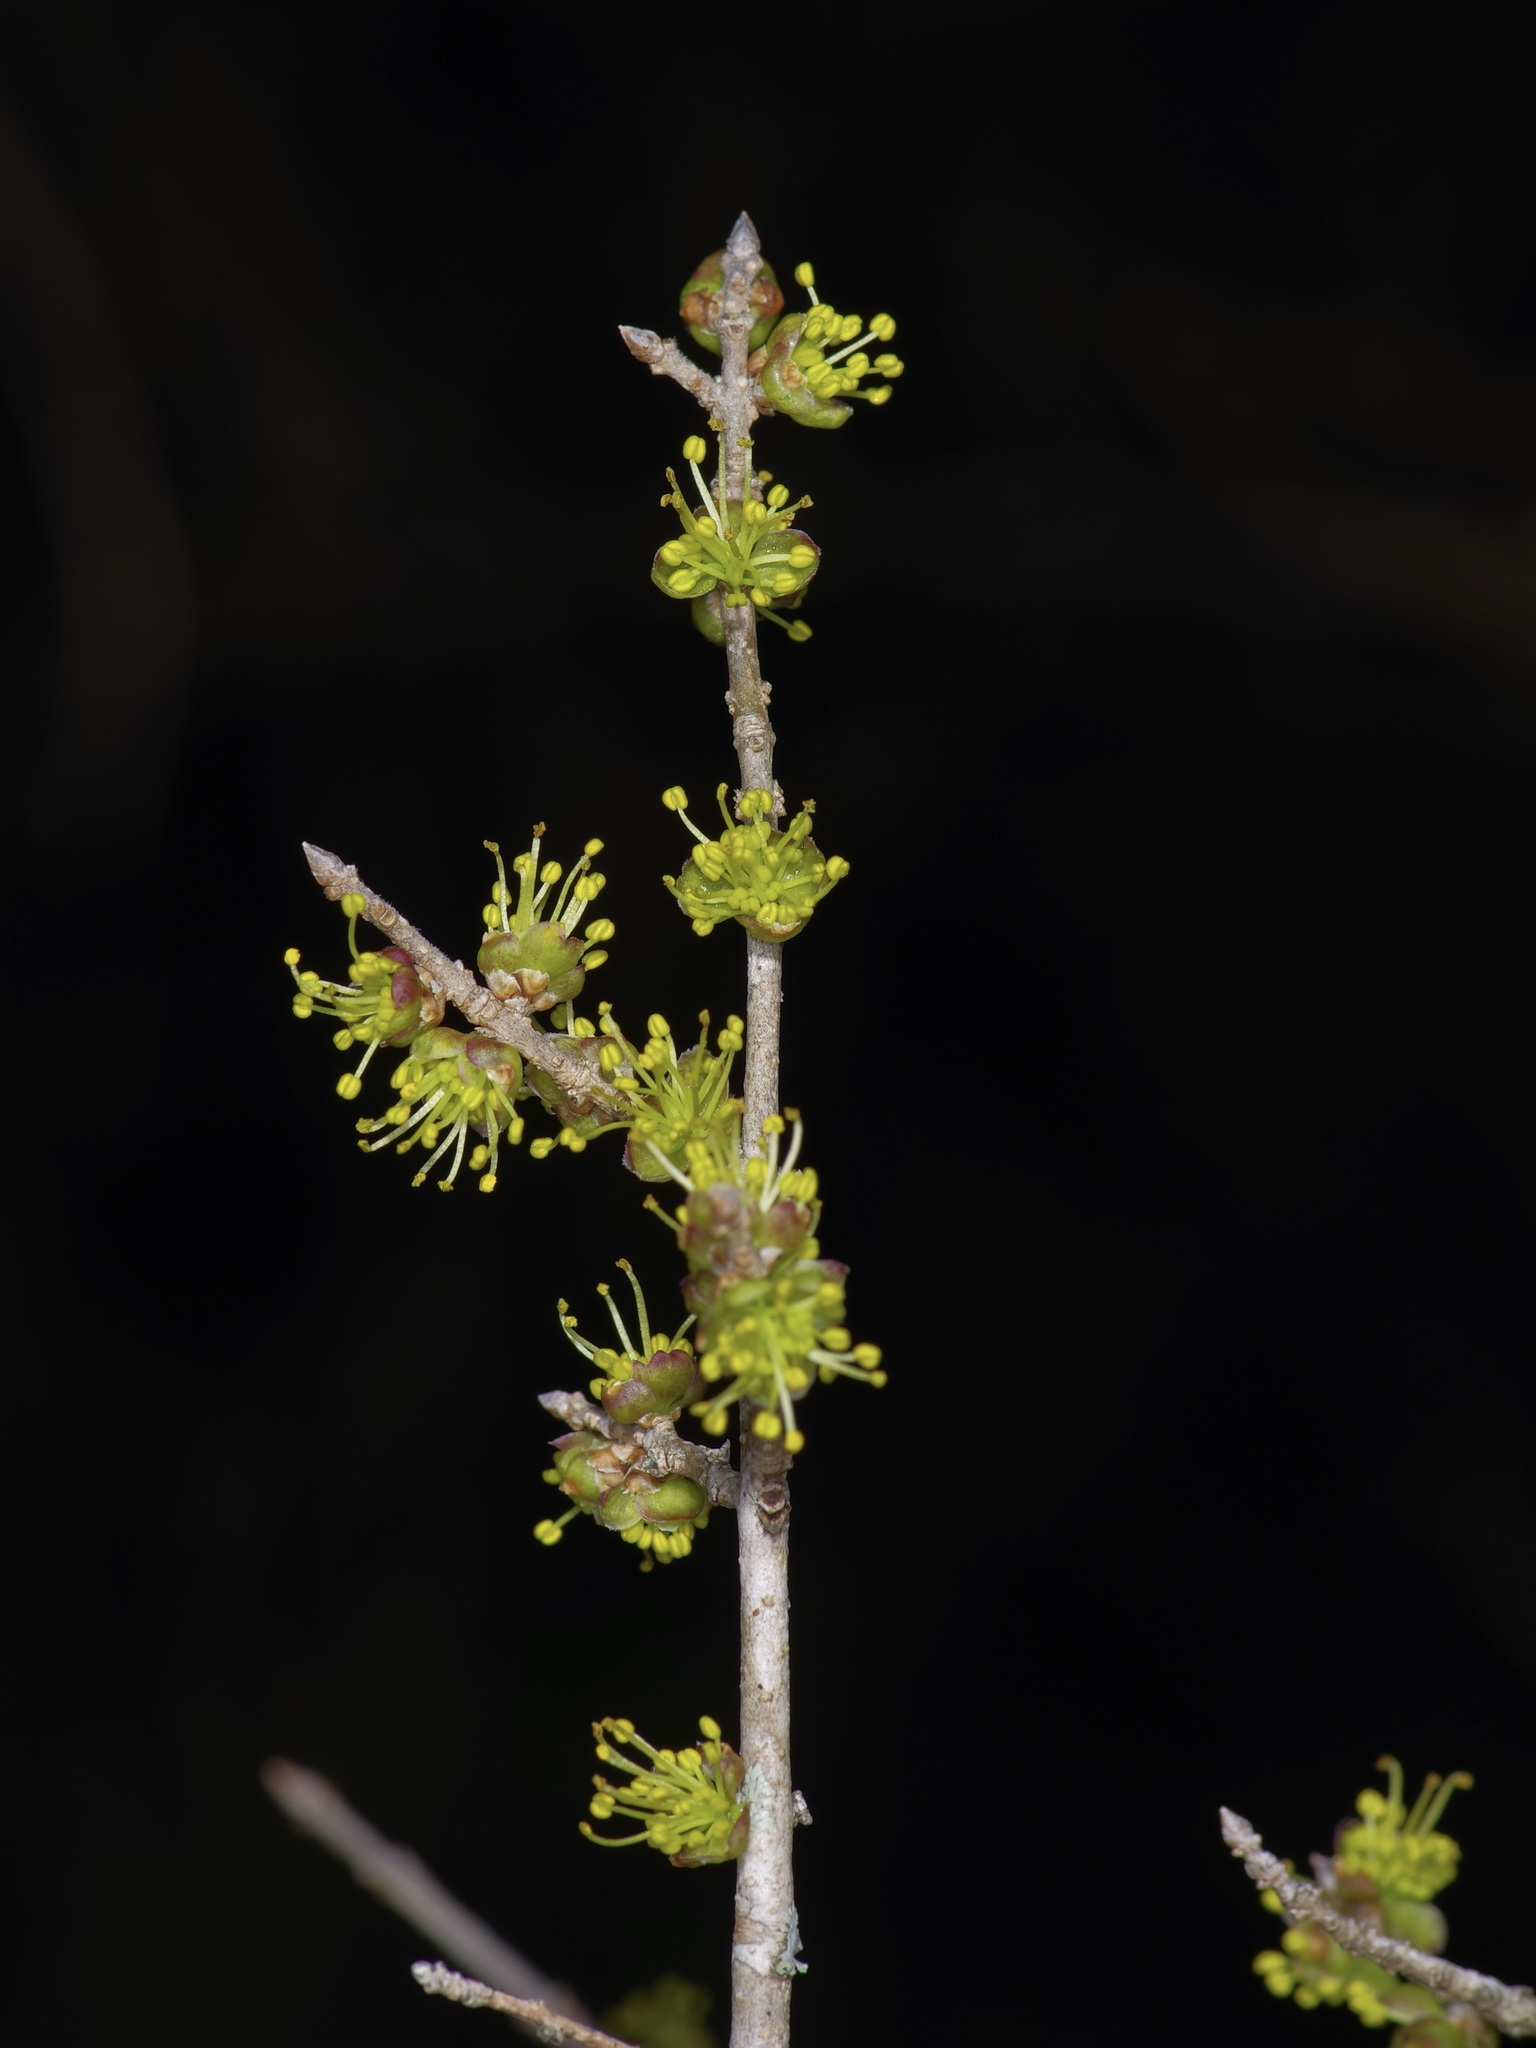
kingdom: Plantae
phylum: Tracheophyta
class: Magnoliopsida
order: Lamiales
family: Oleaceae
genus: Forestiera
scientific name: Forestiera pubescens
